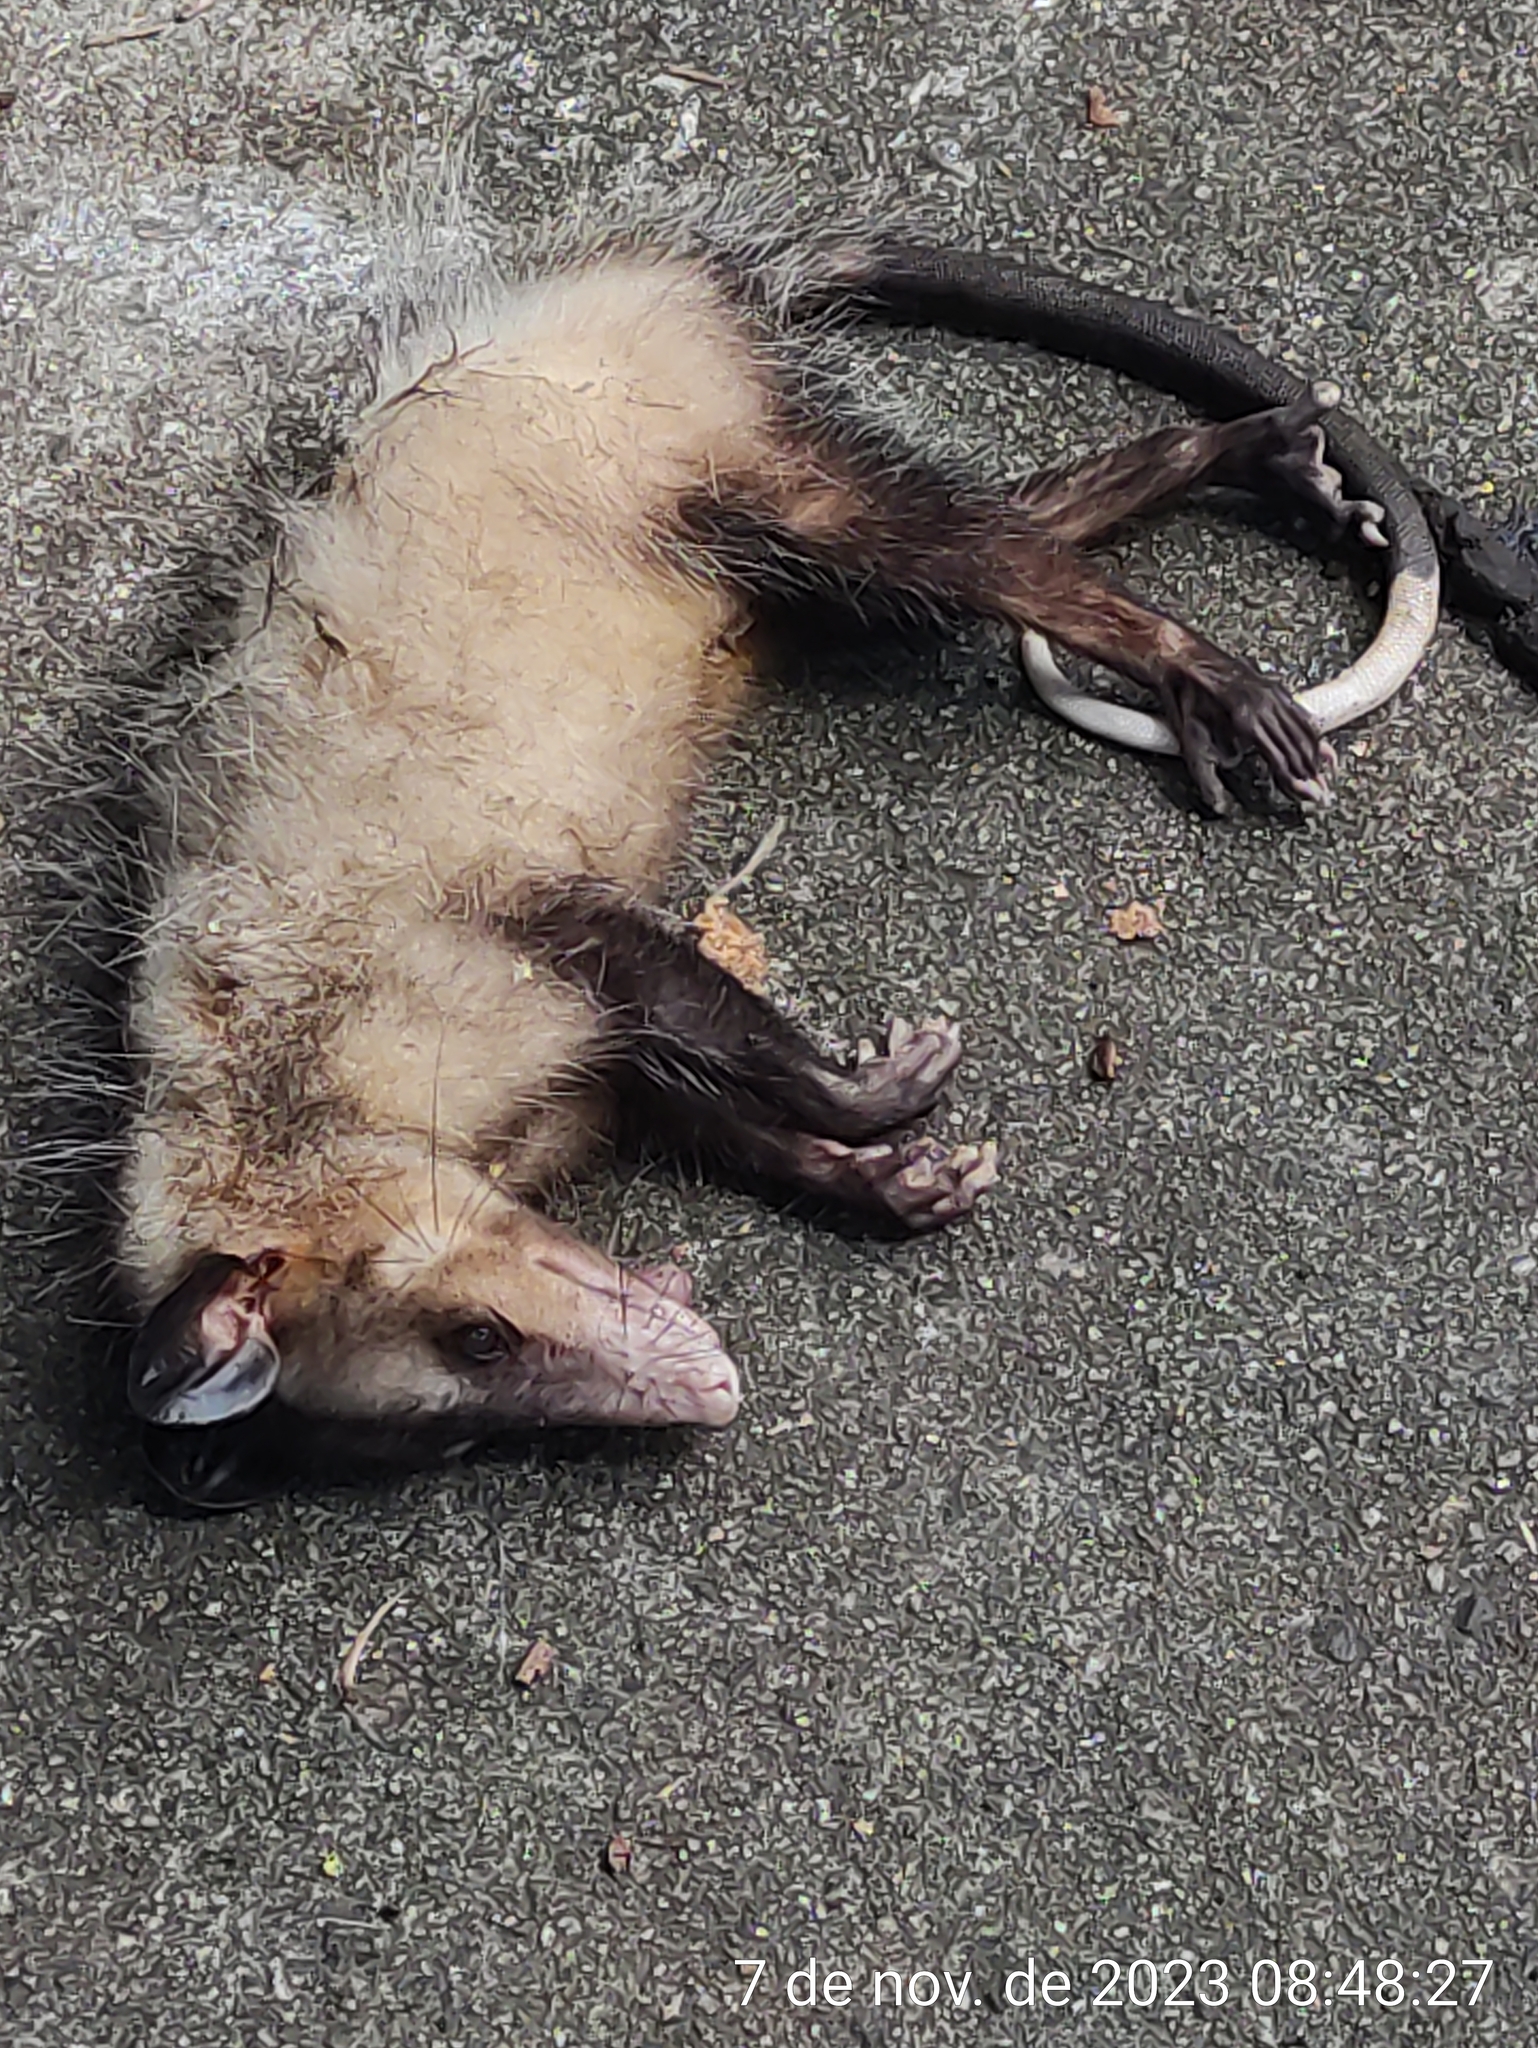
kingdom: Animalia
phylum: Chordata
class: Mammalia
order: Didelphimorphia
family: Didelphidae
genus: Didelphis
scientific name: Didelphis aurita
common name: Big-eared opossum
